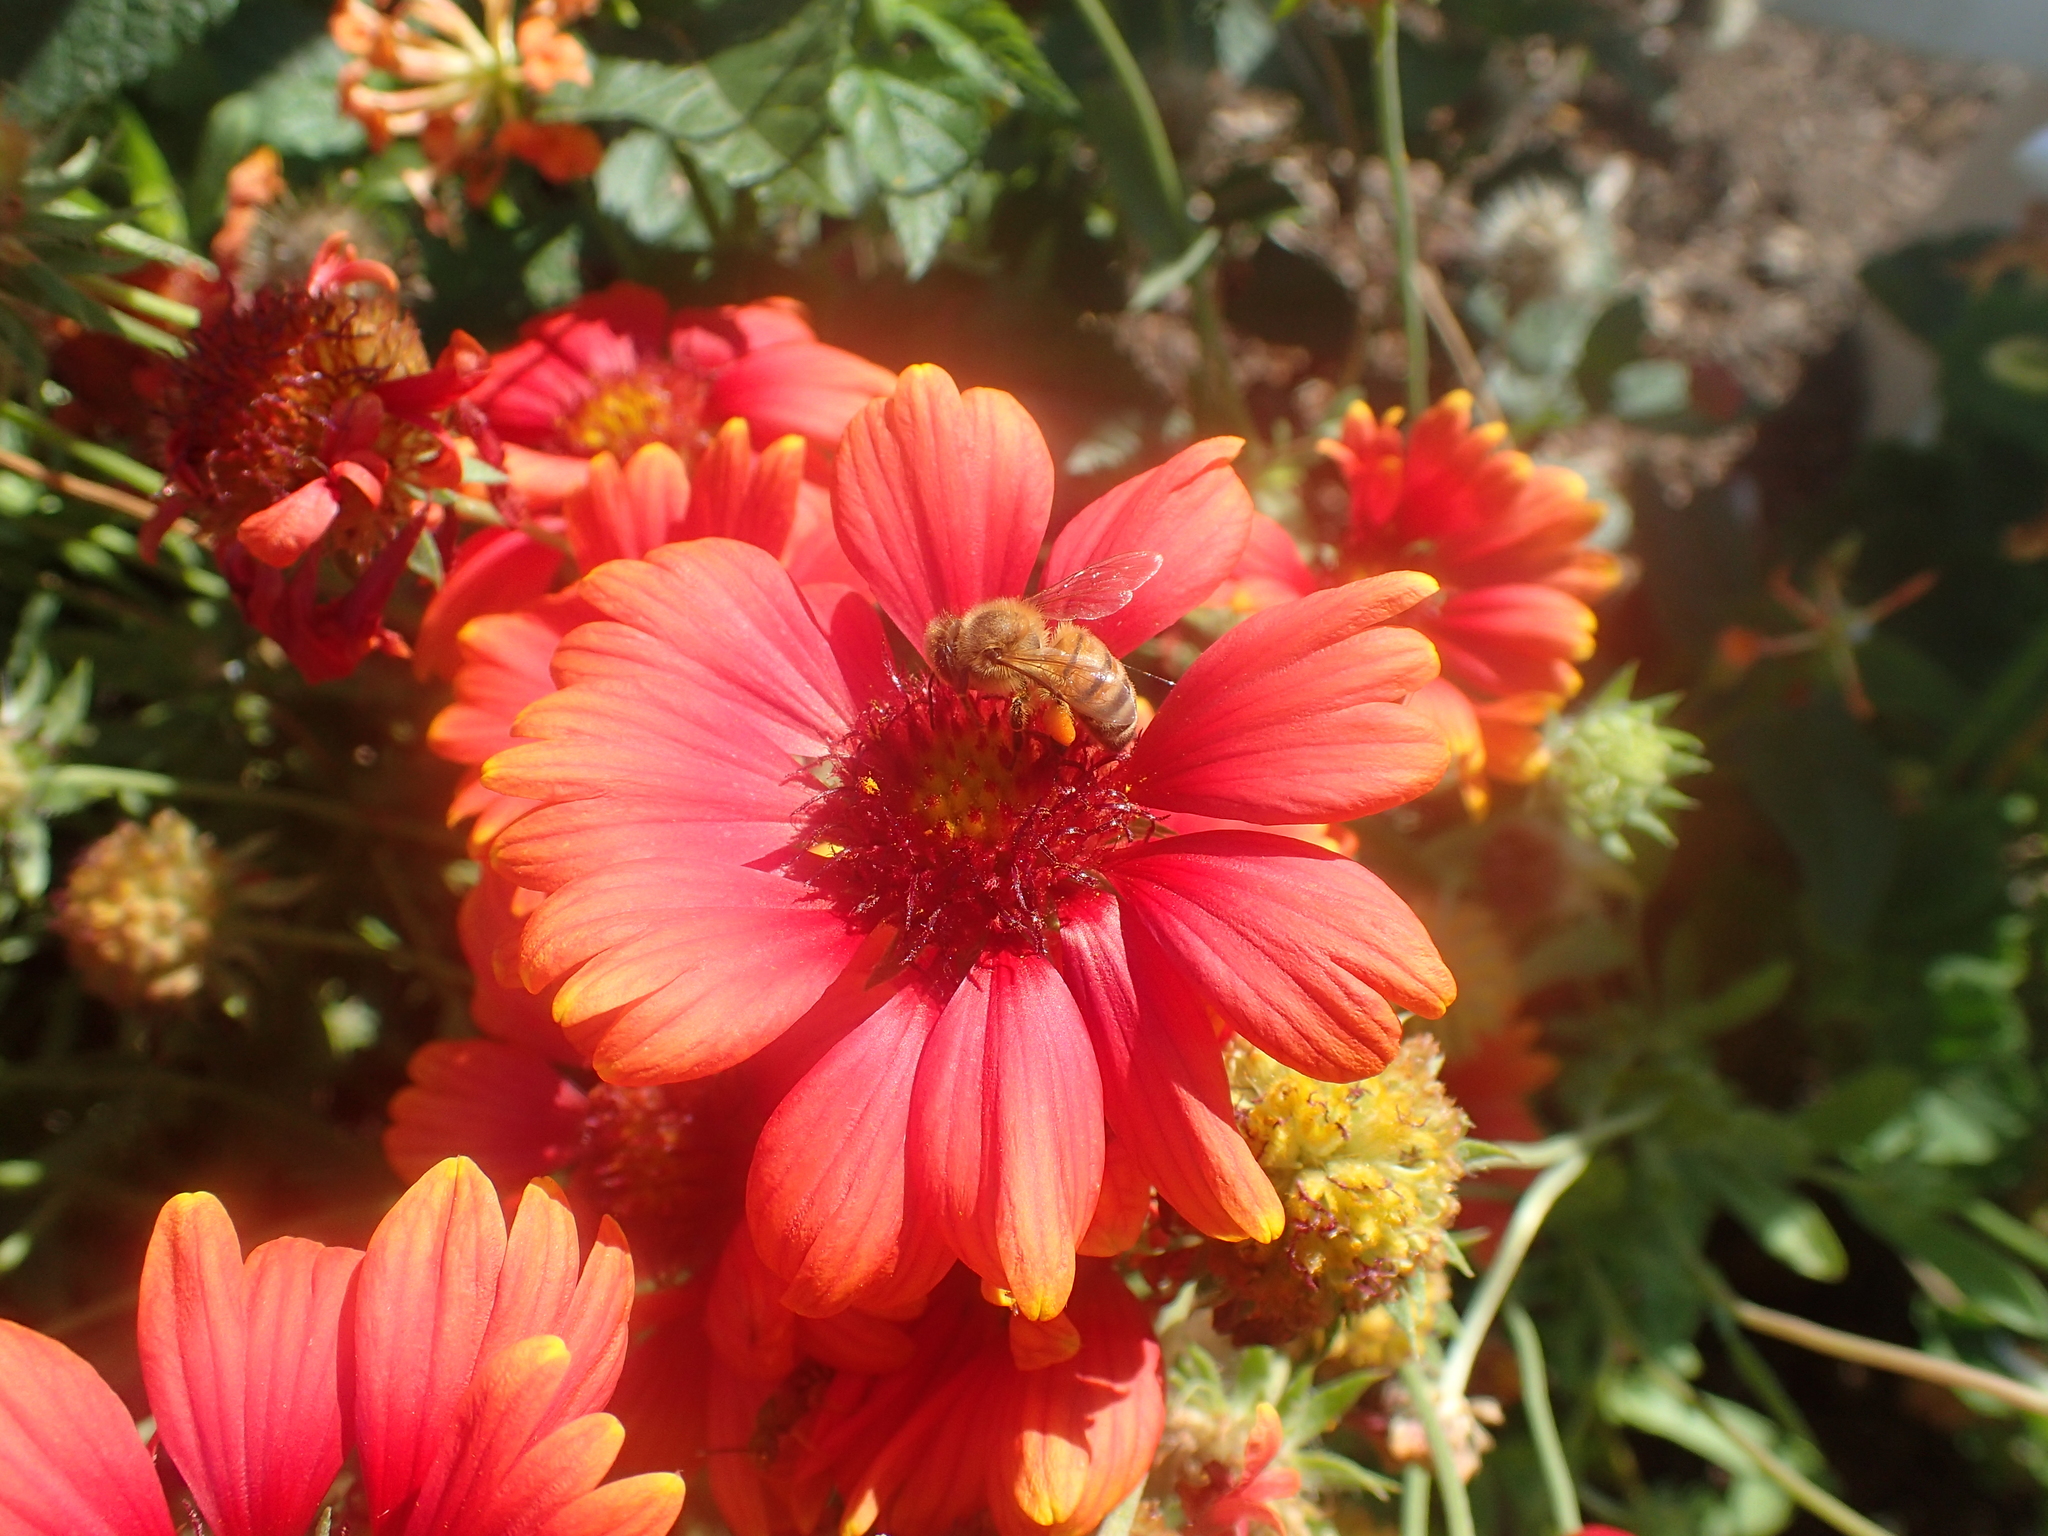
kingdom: Animalia
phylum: Arthropoda
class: Insecta
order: Hymenoptera
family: Apidae
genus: Apis
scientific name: Apis mellifera
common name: Honey bee
